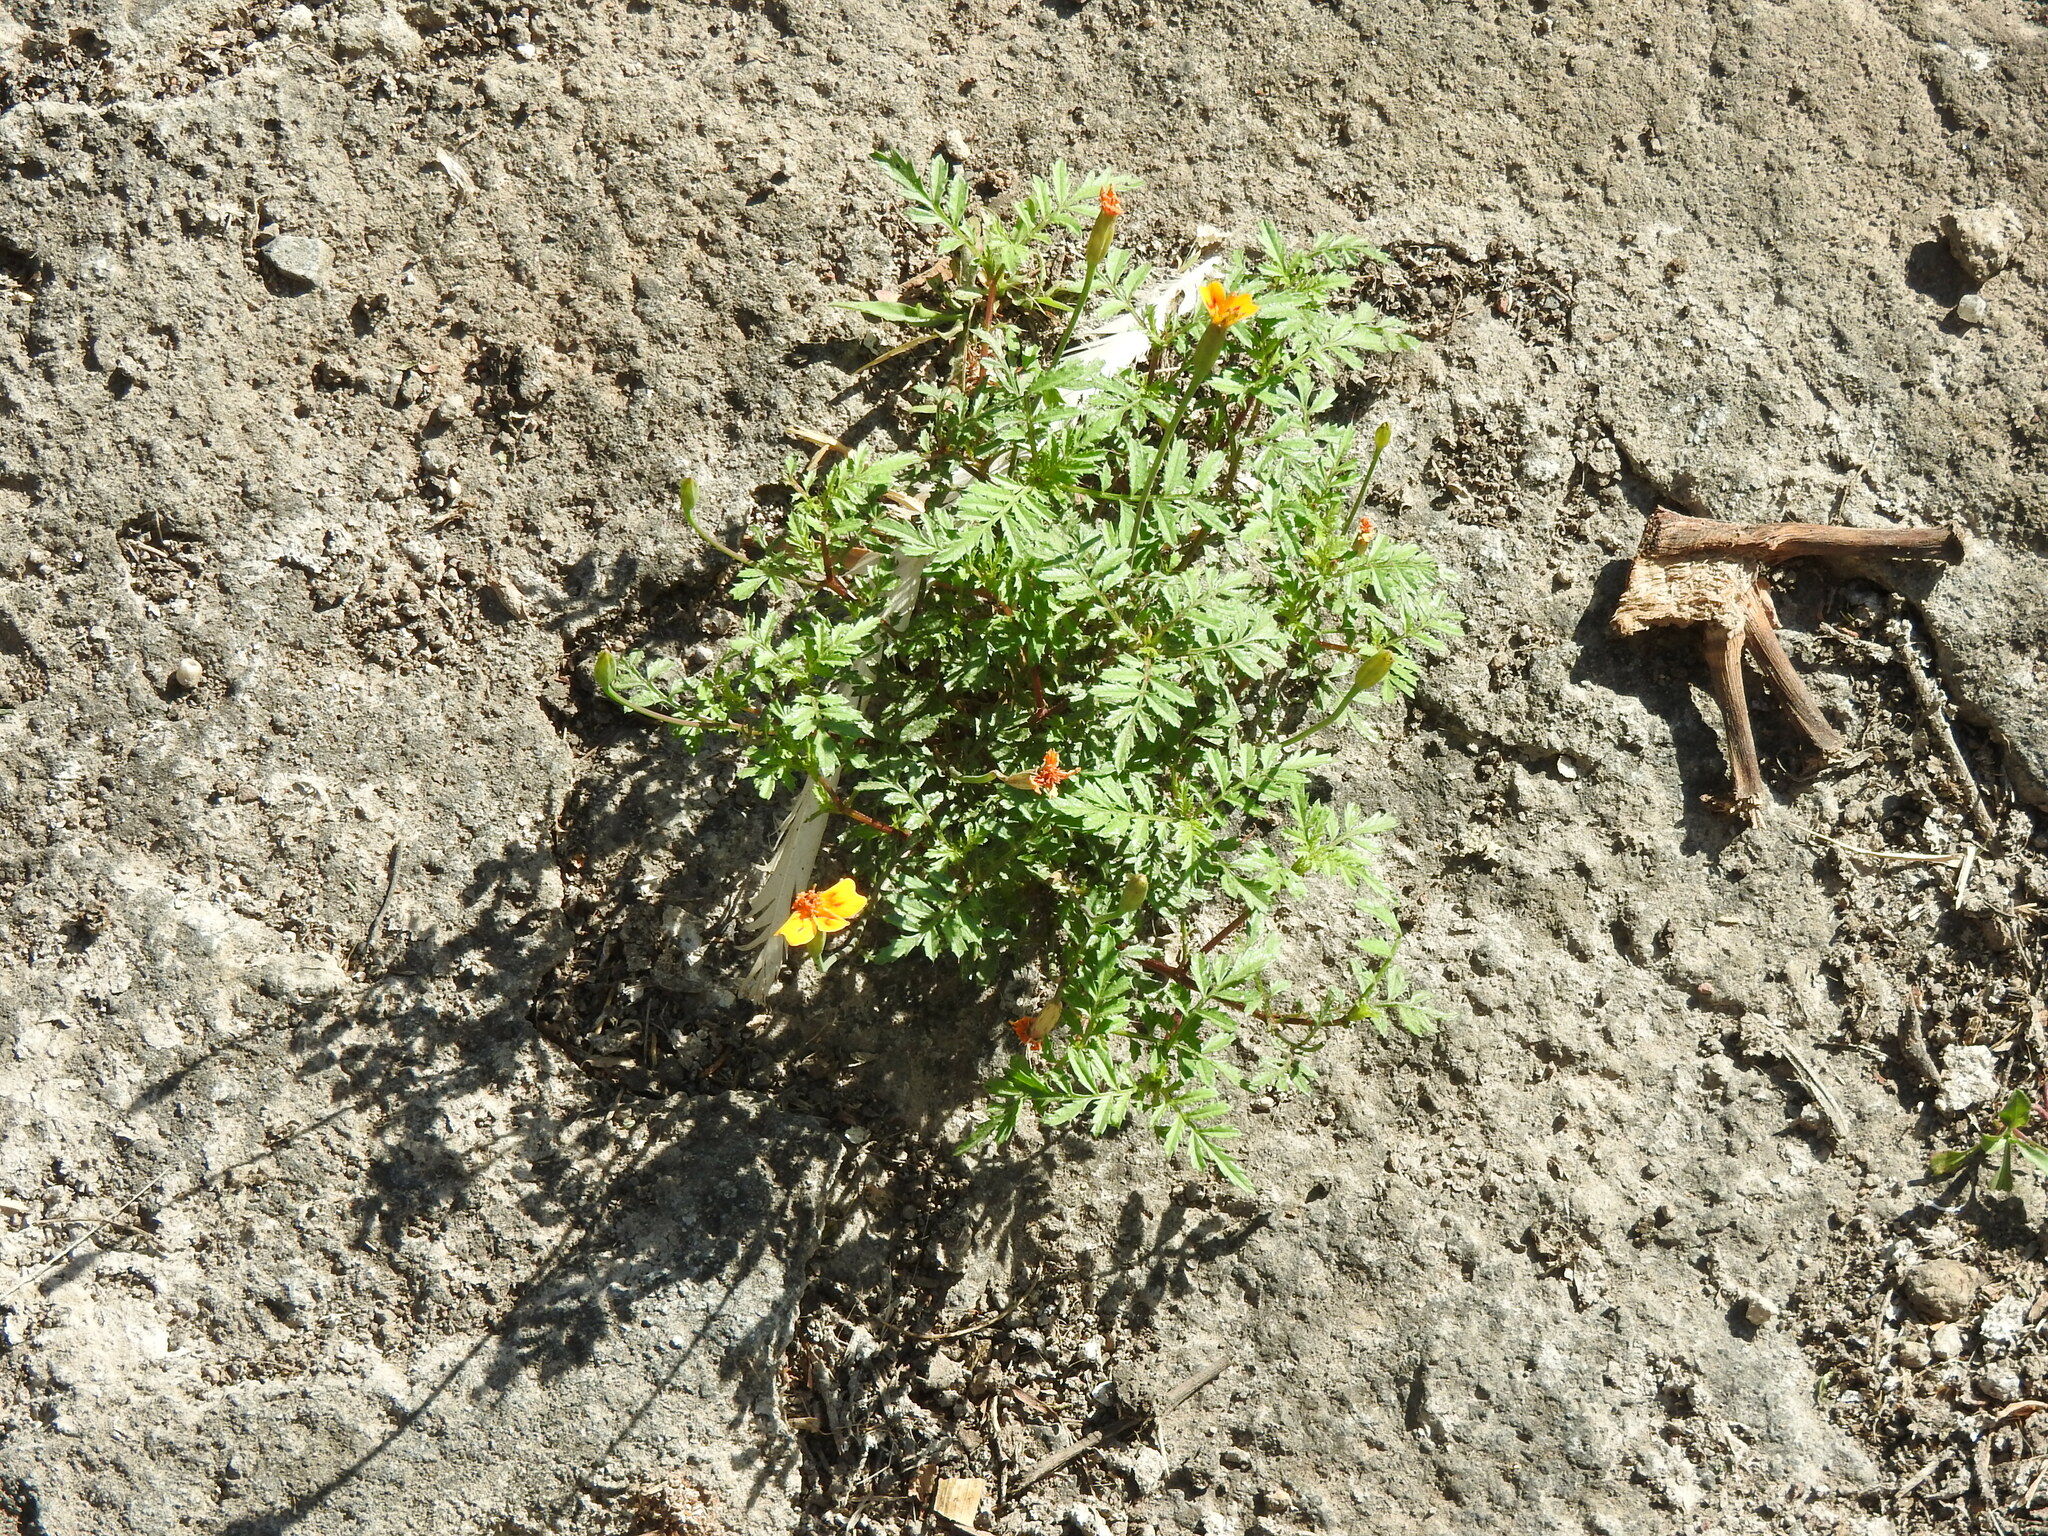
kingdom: Plantae
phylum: Tracheophyta
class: Magnoliopsida
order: Asterales
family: Asteraceae
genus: Tagetes
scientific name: Tagetes lunulata
